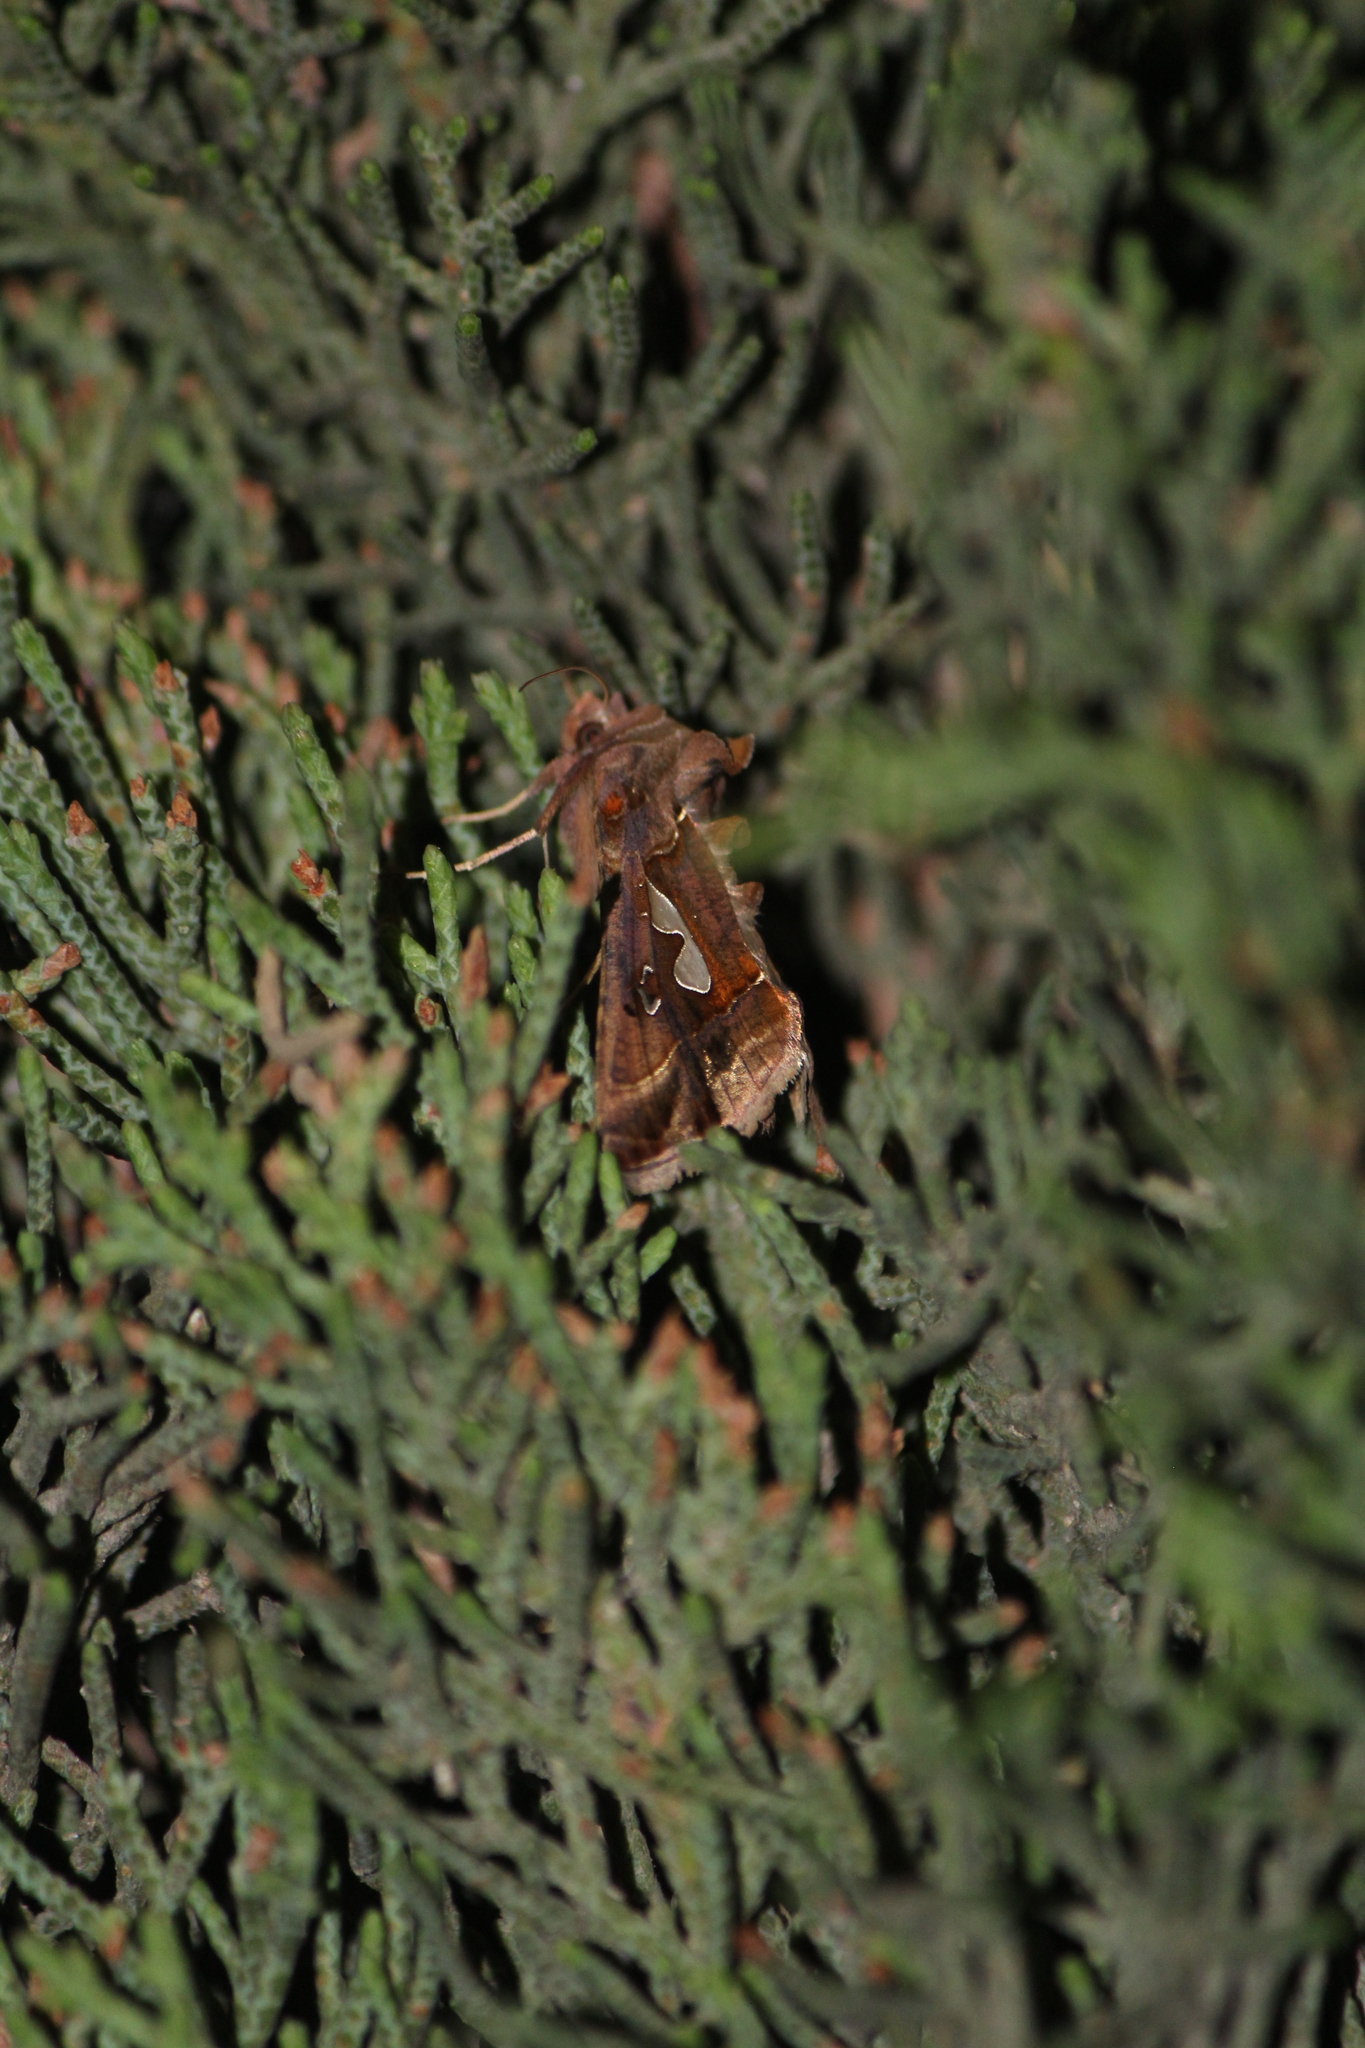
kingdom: Animalia
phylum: Arthropoda
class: Insecta
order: Lepidoptera
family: Noctuidae
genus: Megalographa
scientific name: Megalographa biloba
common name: Cutworm
